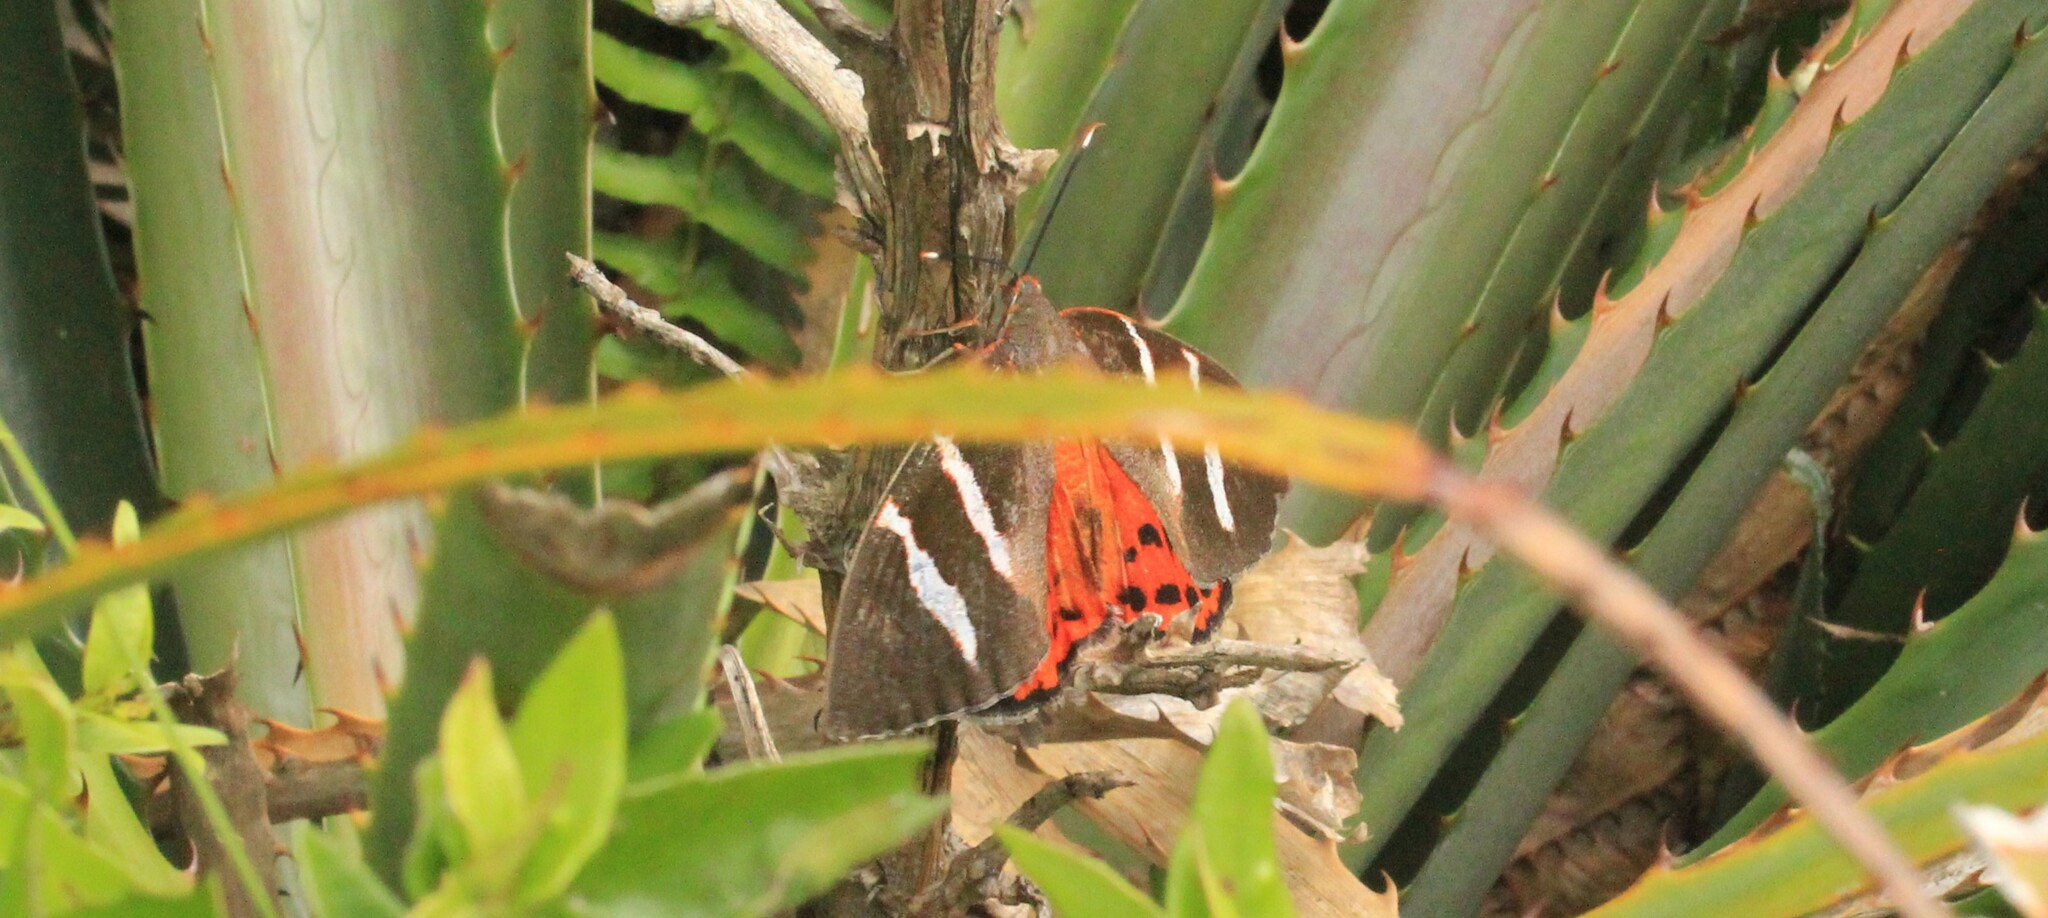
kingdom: Animalia
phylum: Arthropoda
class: Insecta
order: Lepidoptera
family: Nymphalidae
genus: Elina
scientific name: Elina invaria
